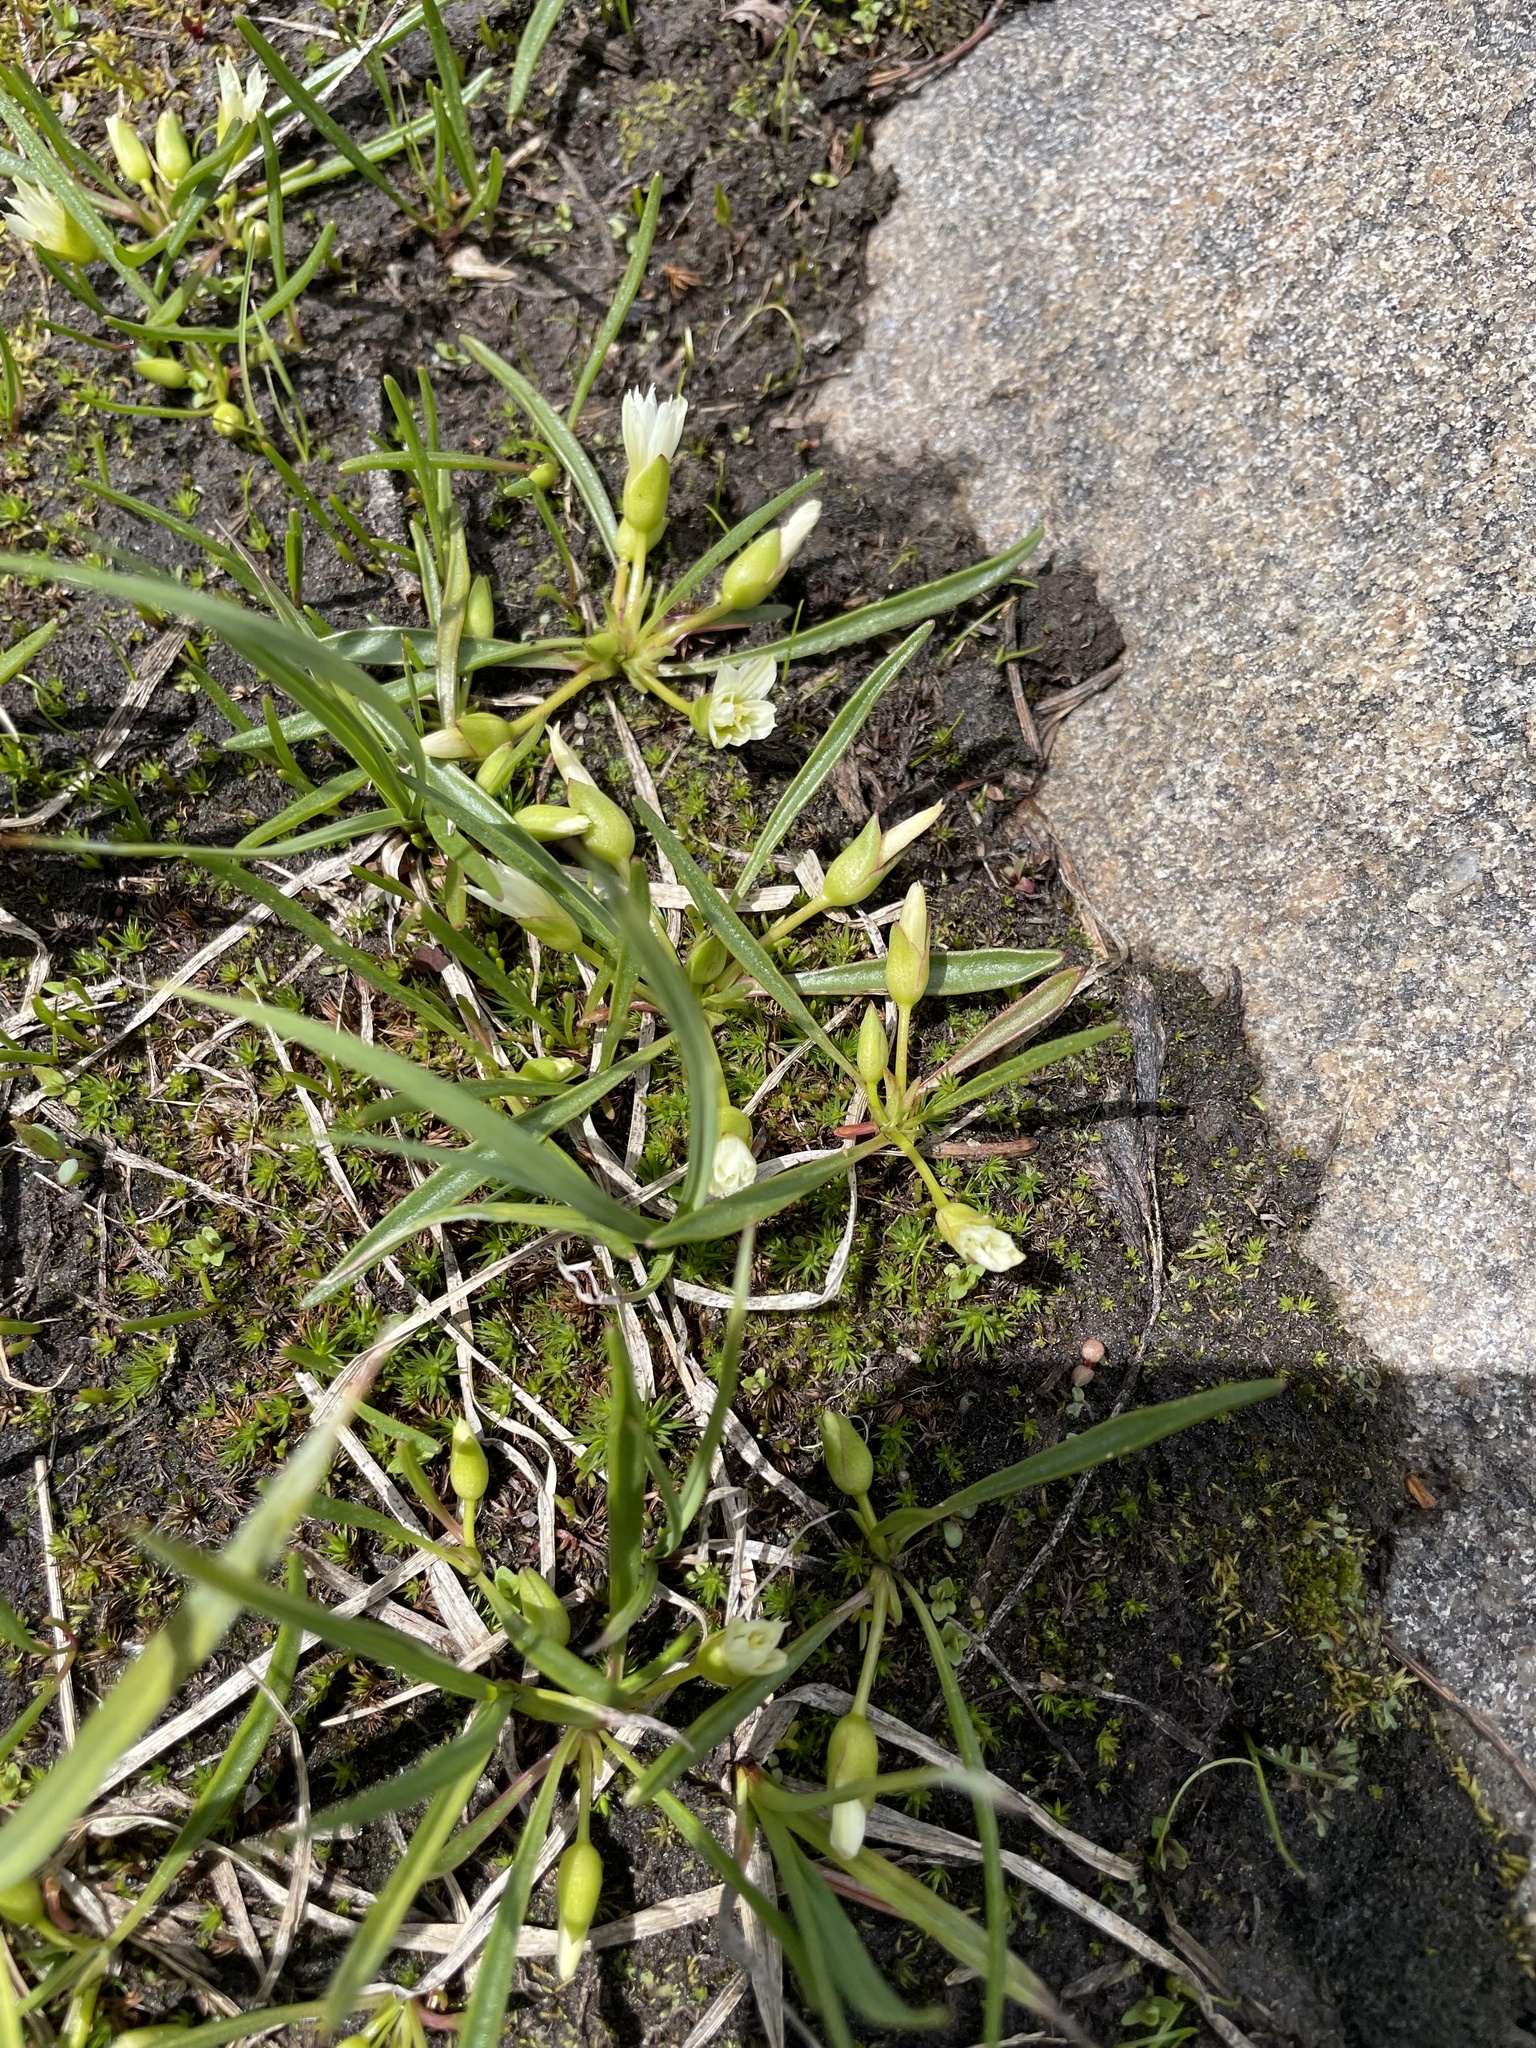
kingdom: Plantae
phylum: Tracheophyta
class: Magnoliopsida
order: Caryophyllales
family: Montiaceae
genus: Lewisia
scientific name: Lewisia pygmaea
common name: Alpine bitterroot
